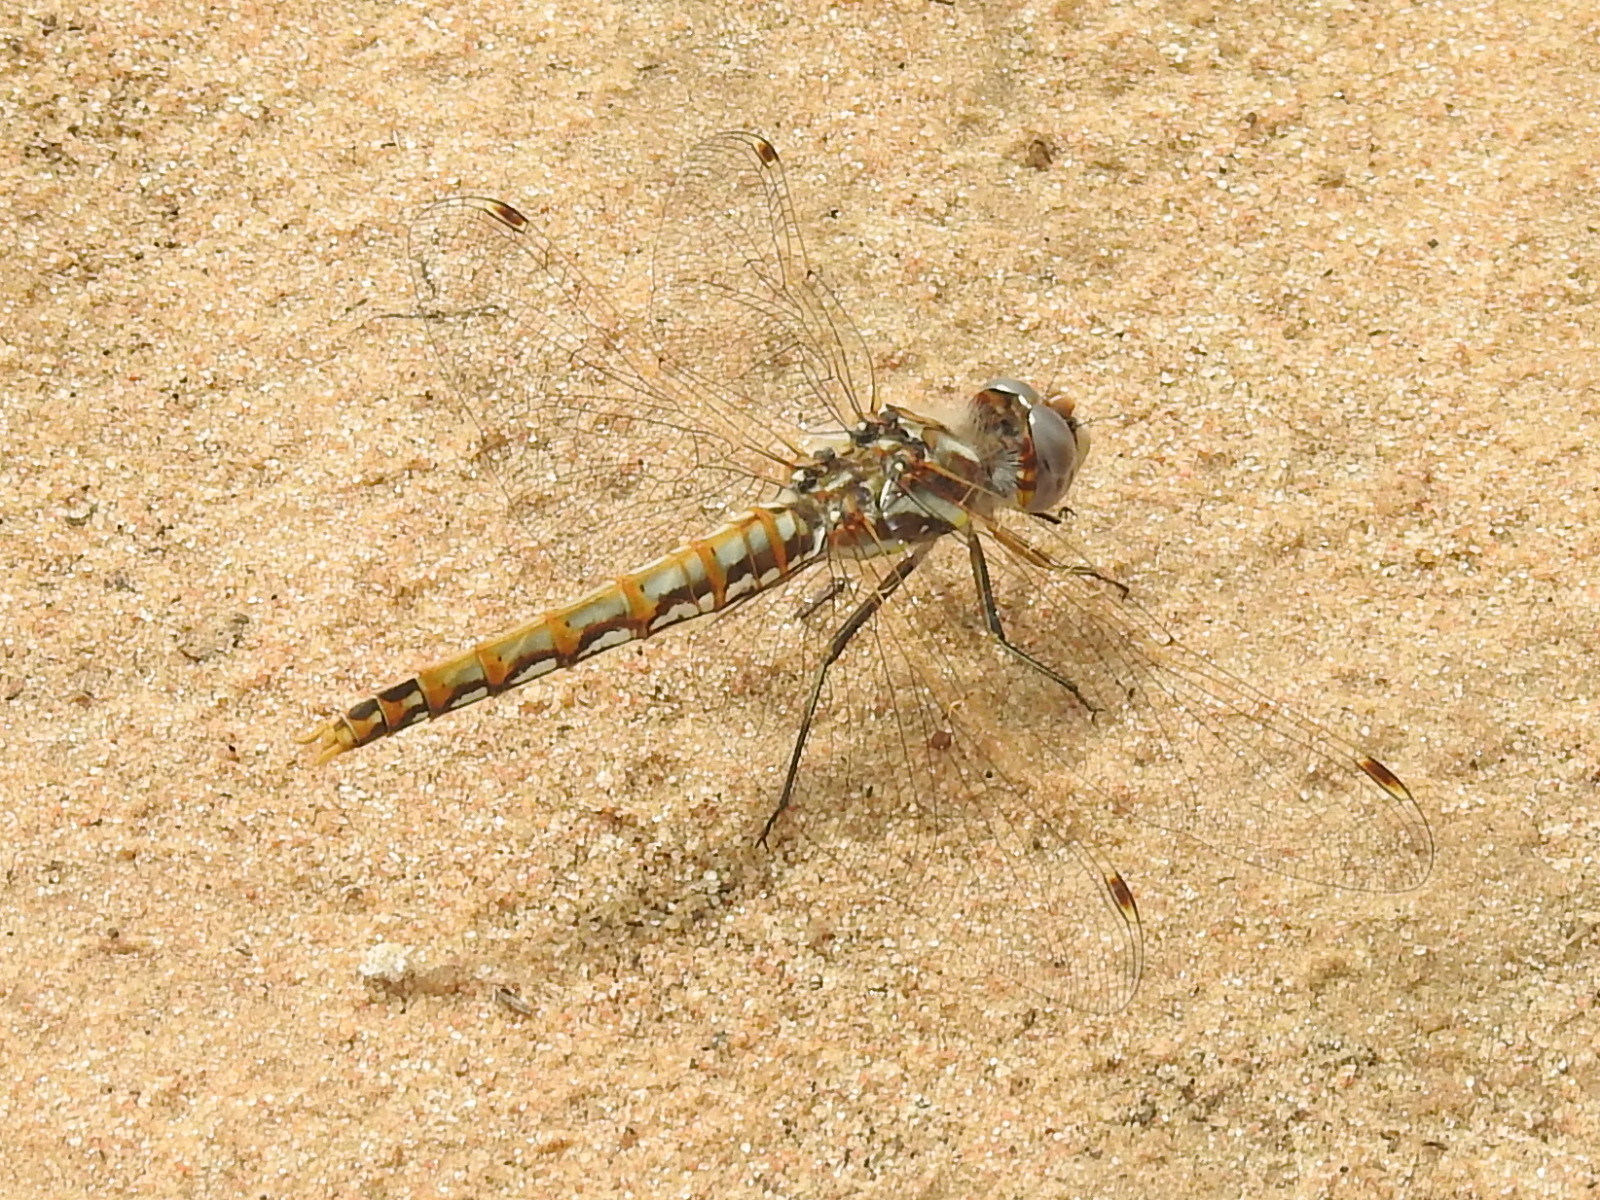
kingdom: Animalia
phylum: Arthropoda
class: Insecta
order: Odonata
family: Libellulidae
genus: Sympetrum
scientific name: Sympetrum corruptum
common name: Variegated meadowhawk
